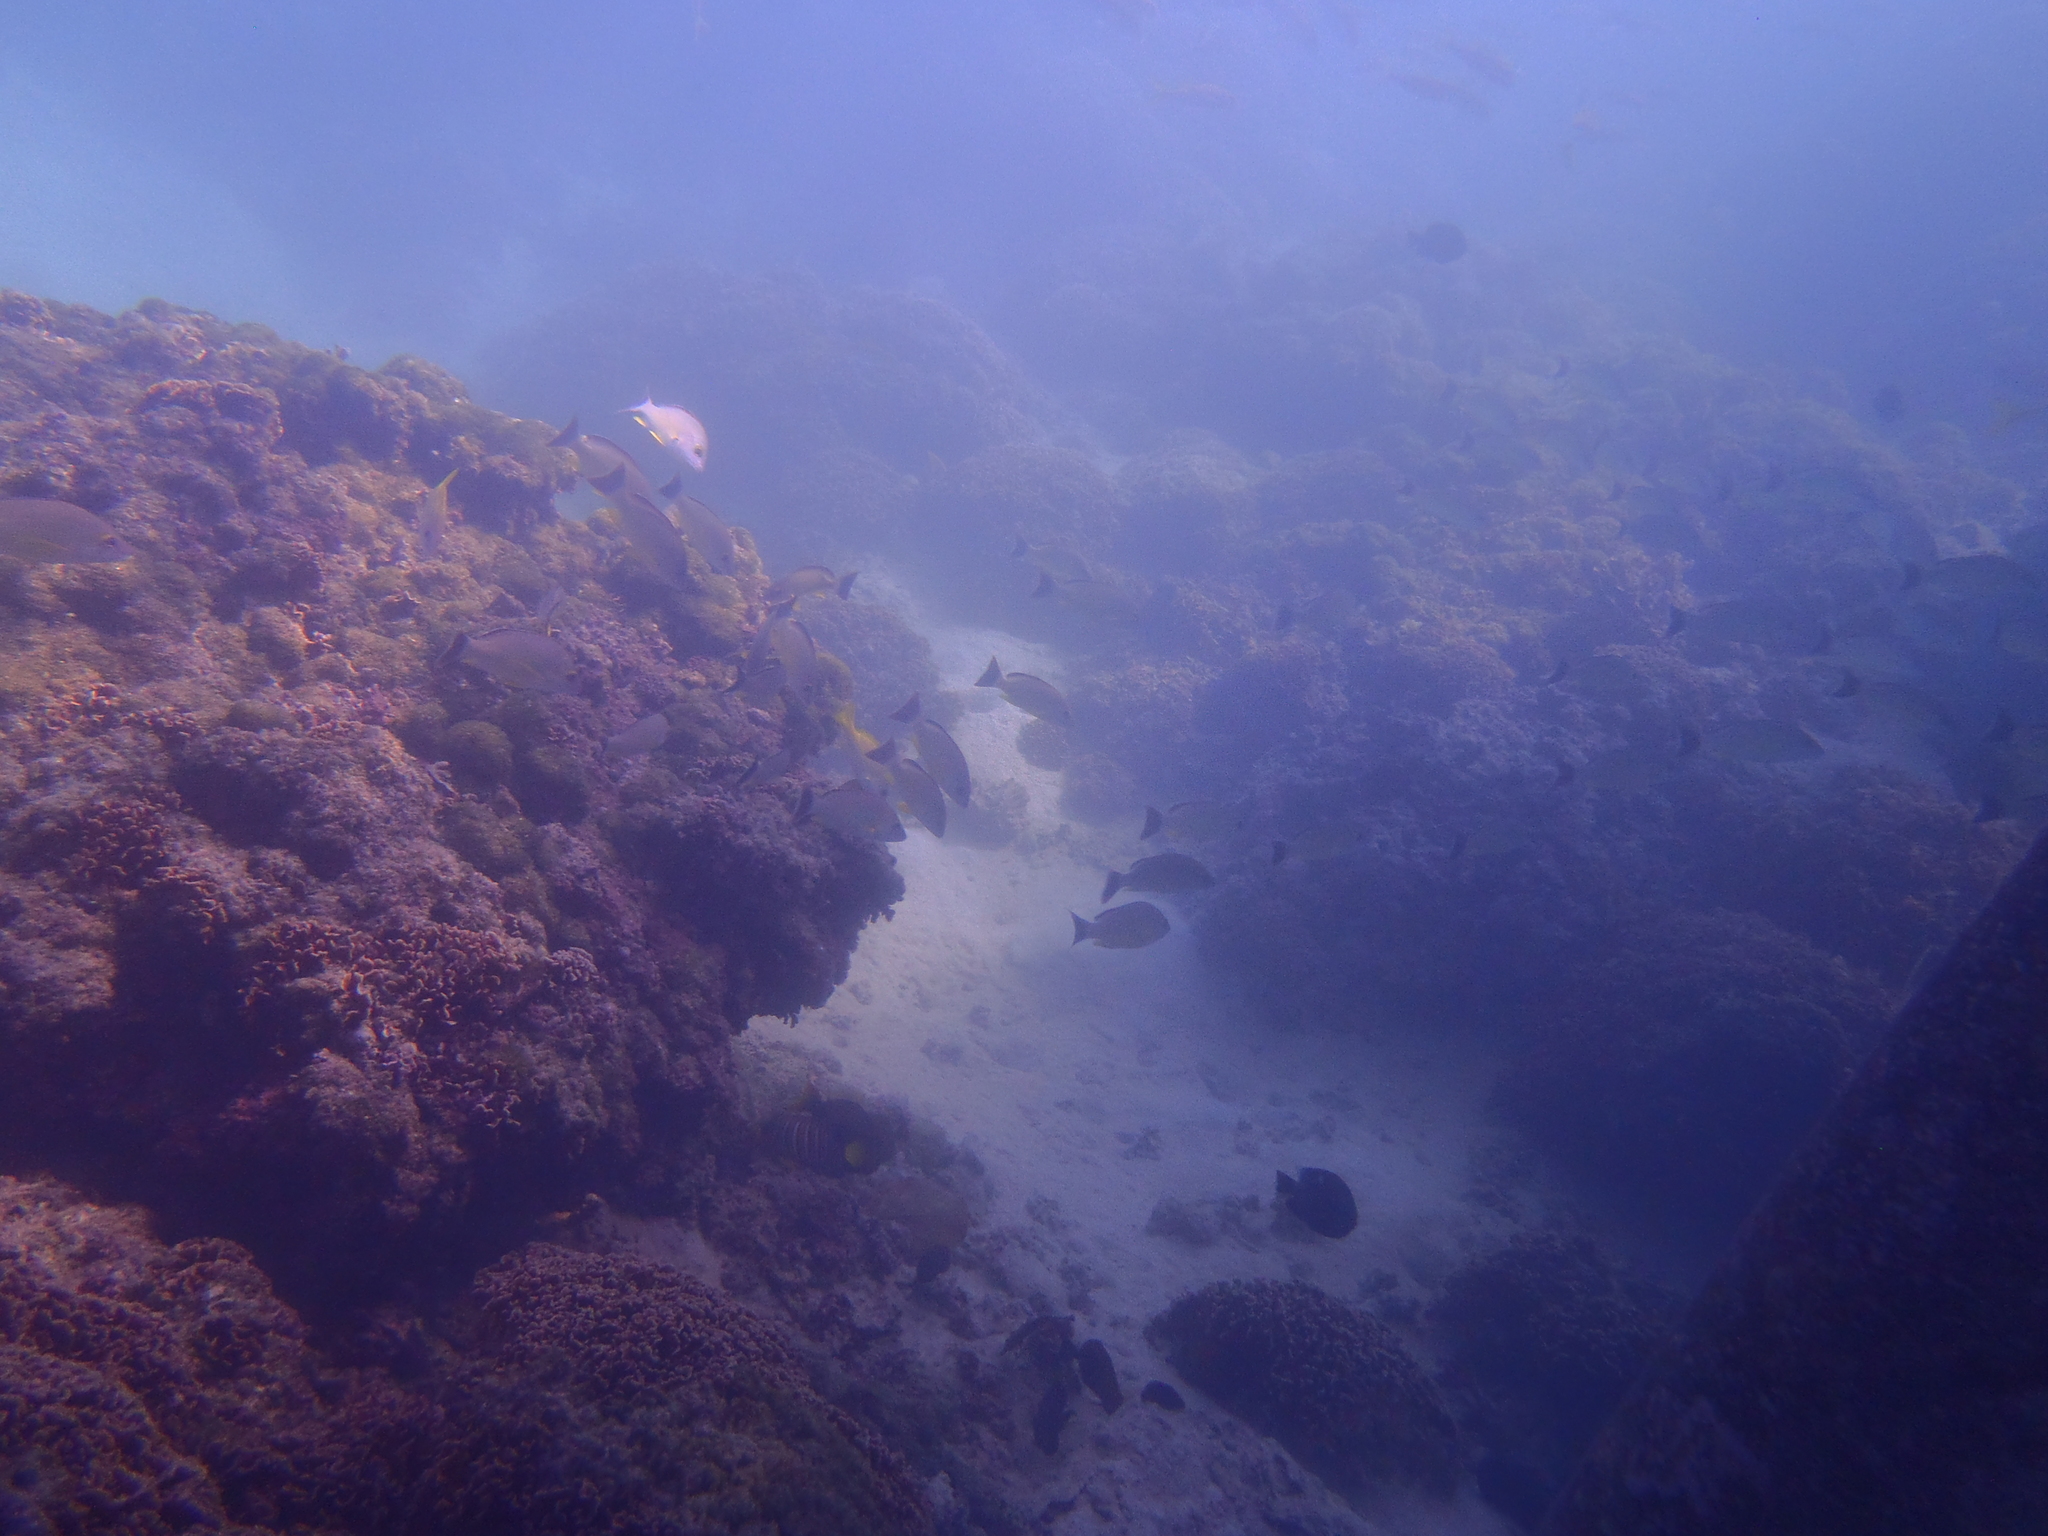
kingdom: Animalia
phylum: Chordata
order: Perciformes
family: Lutjanidae
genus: Lutjanus
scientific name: Lutjanus fulvus
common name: Blacktail snapper
